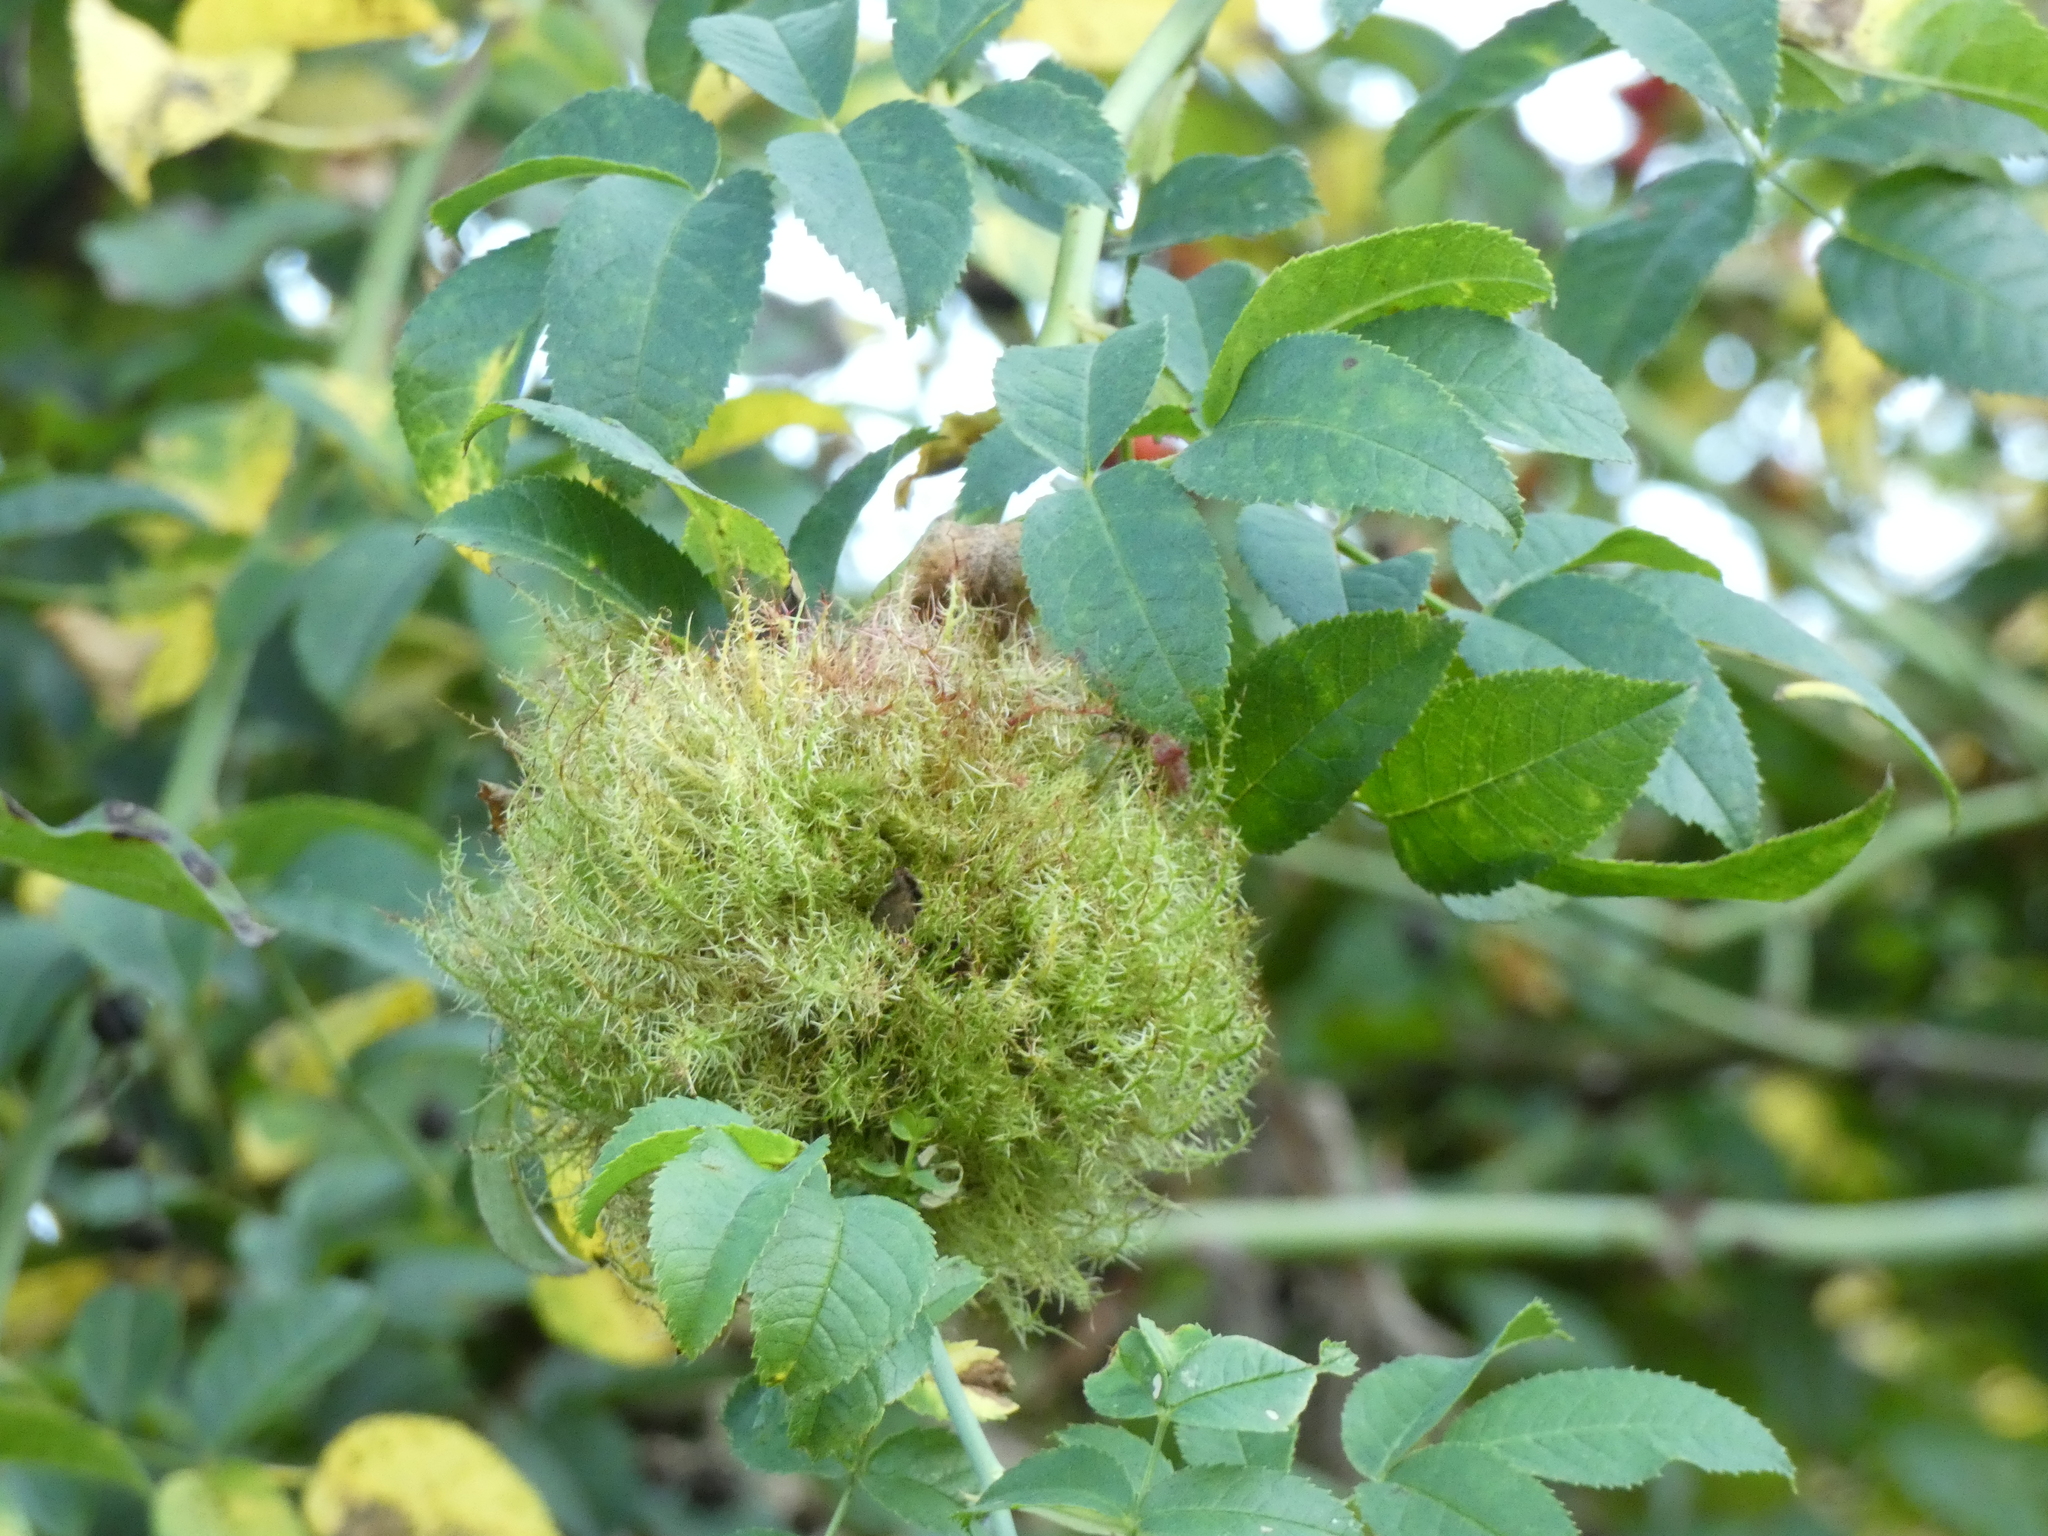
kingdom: Animalia
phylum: Arthropoda
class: Insecta
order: Hymenoptera
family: Cynipidae
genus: Diplolepis
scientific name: Diplolepis rosae
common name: Bedeguar gall
